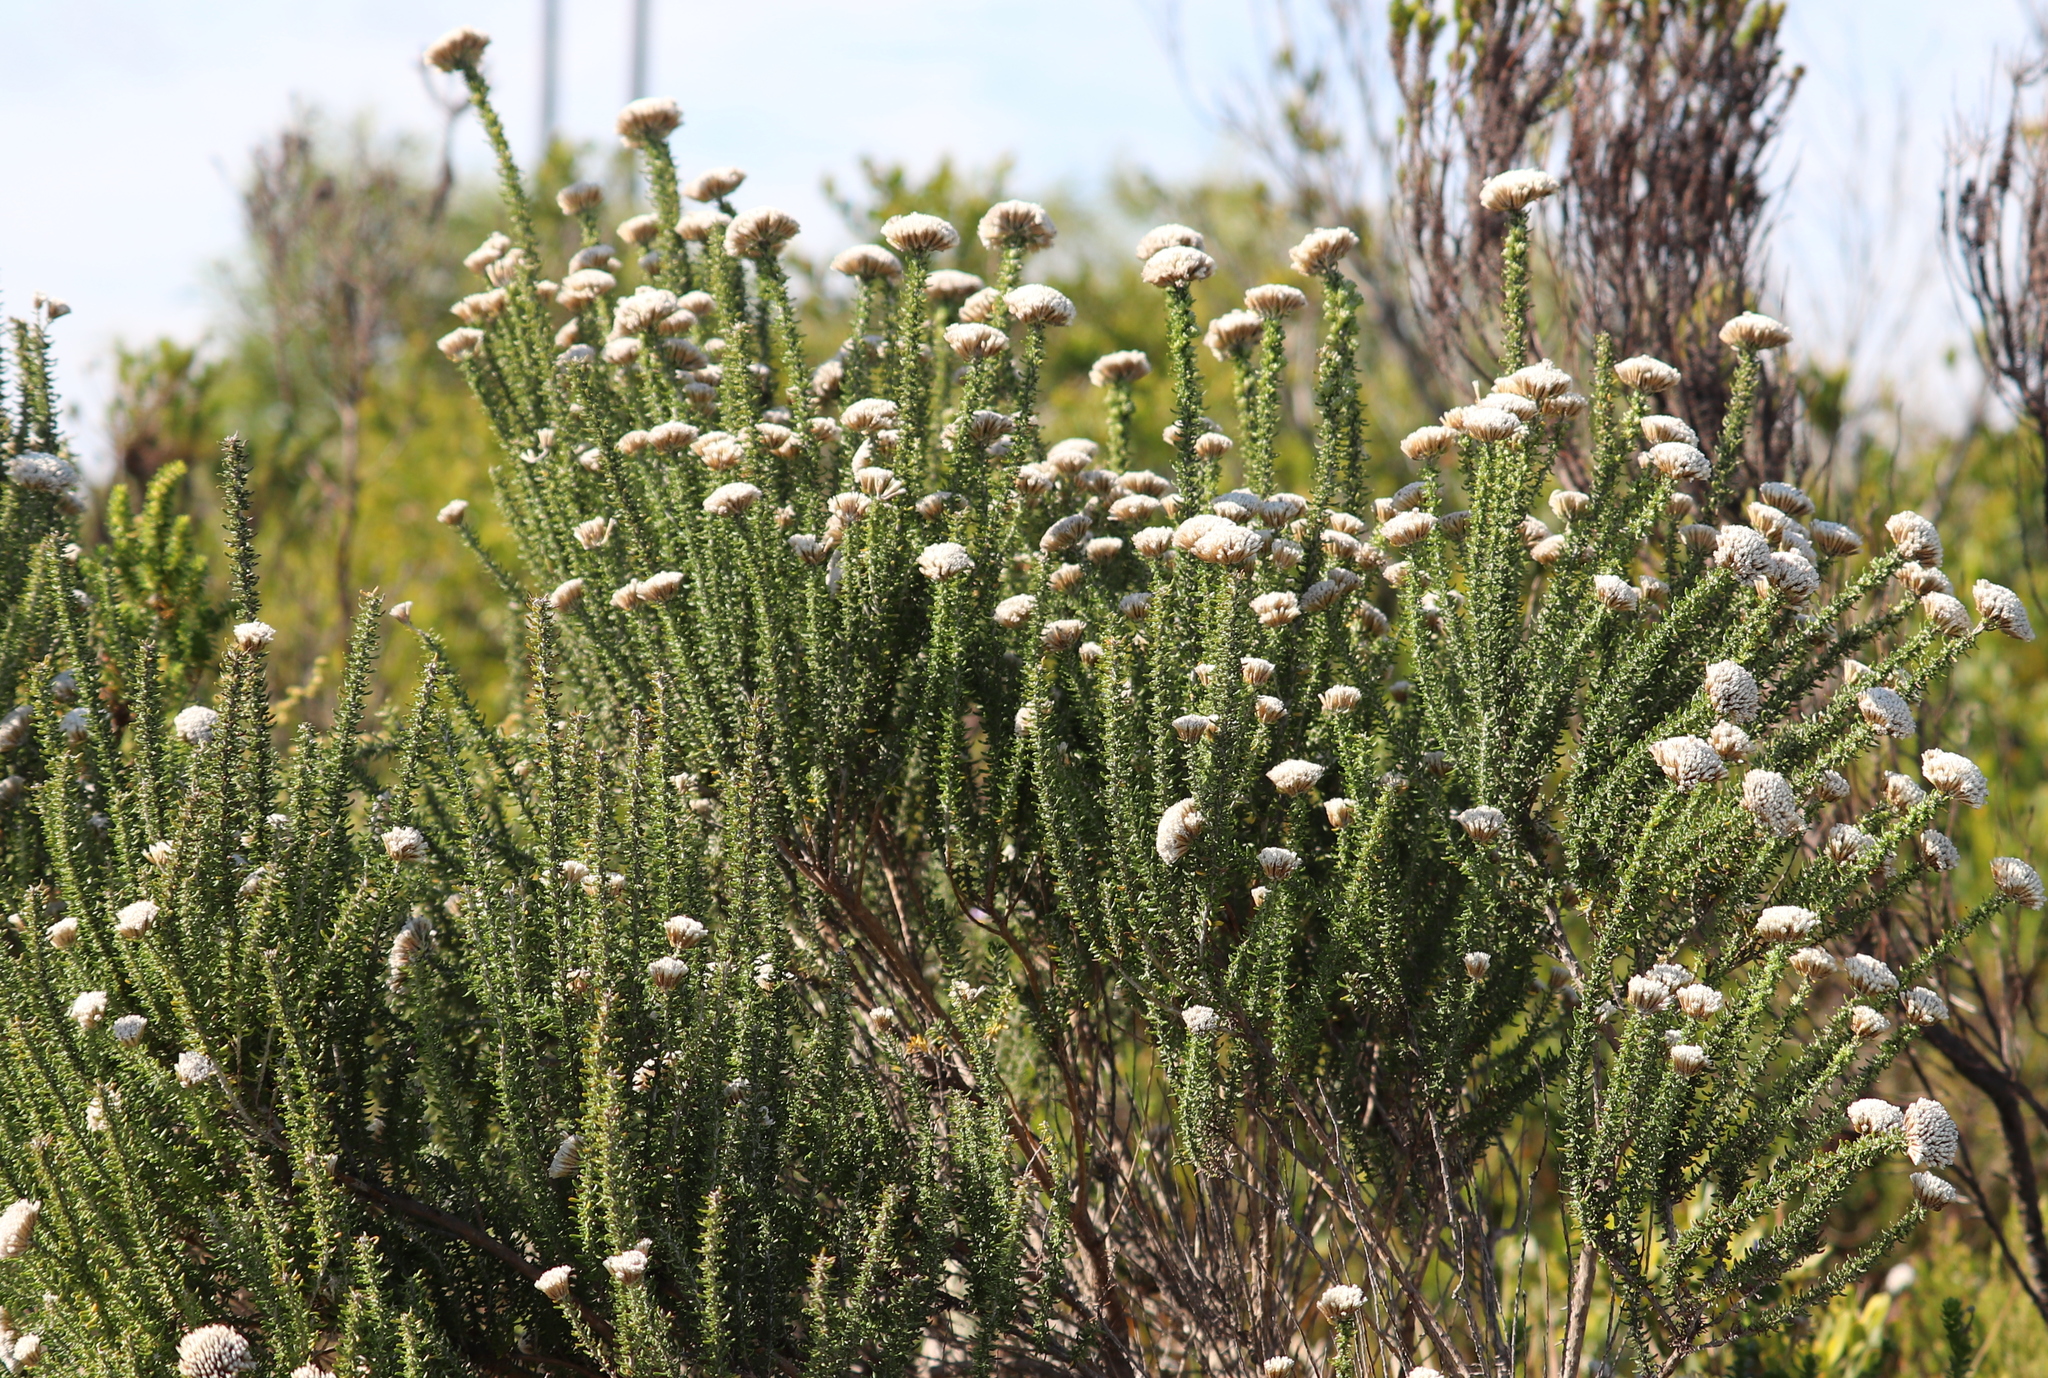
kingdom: Plantae
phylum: Tracheophyta
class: Magnoliopsida
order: Asterales
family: Asteraceae
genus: Metalasia
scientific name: Metalasia muricata
